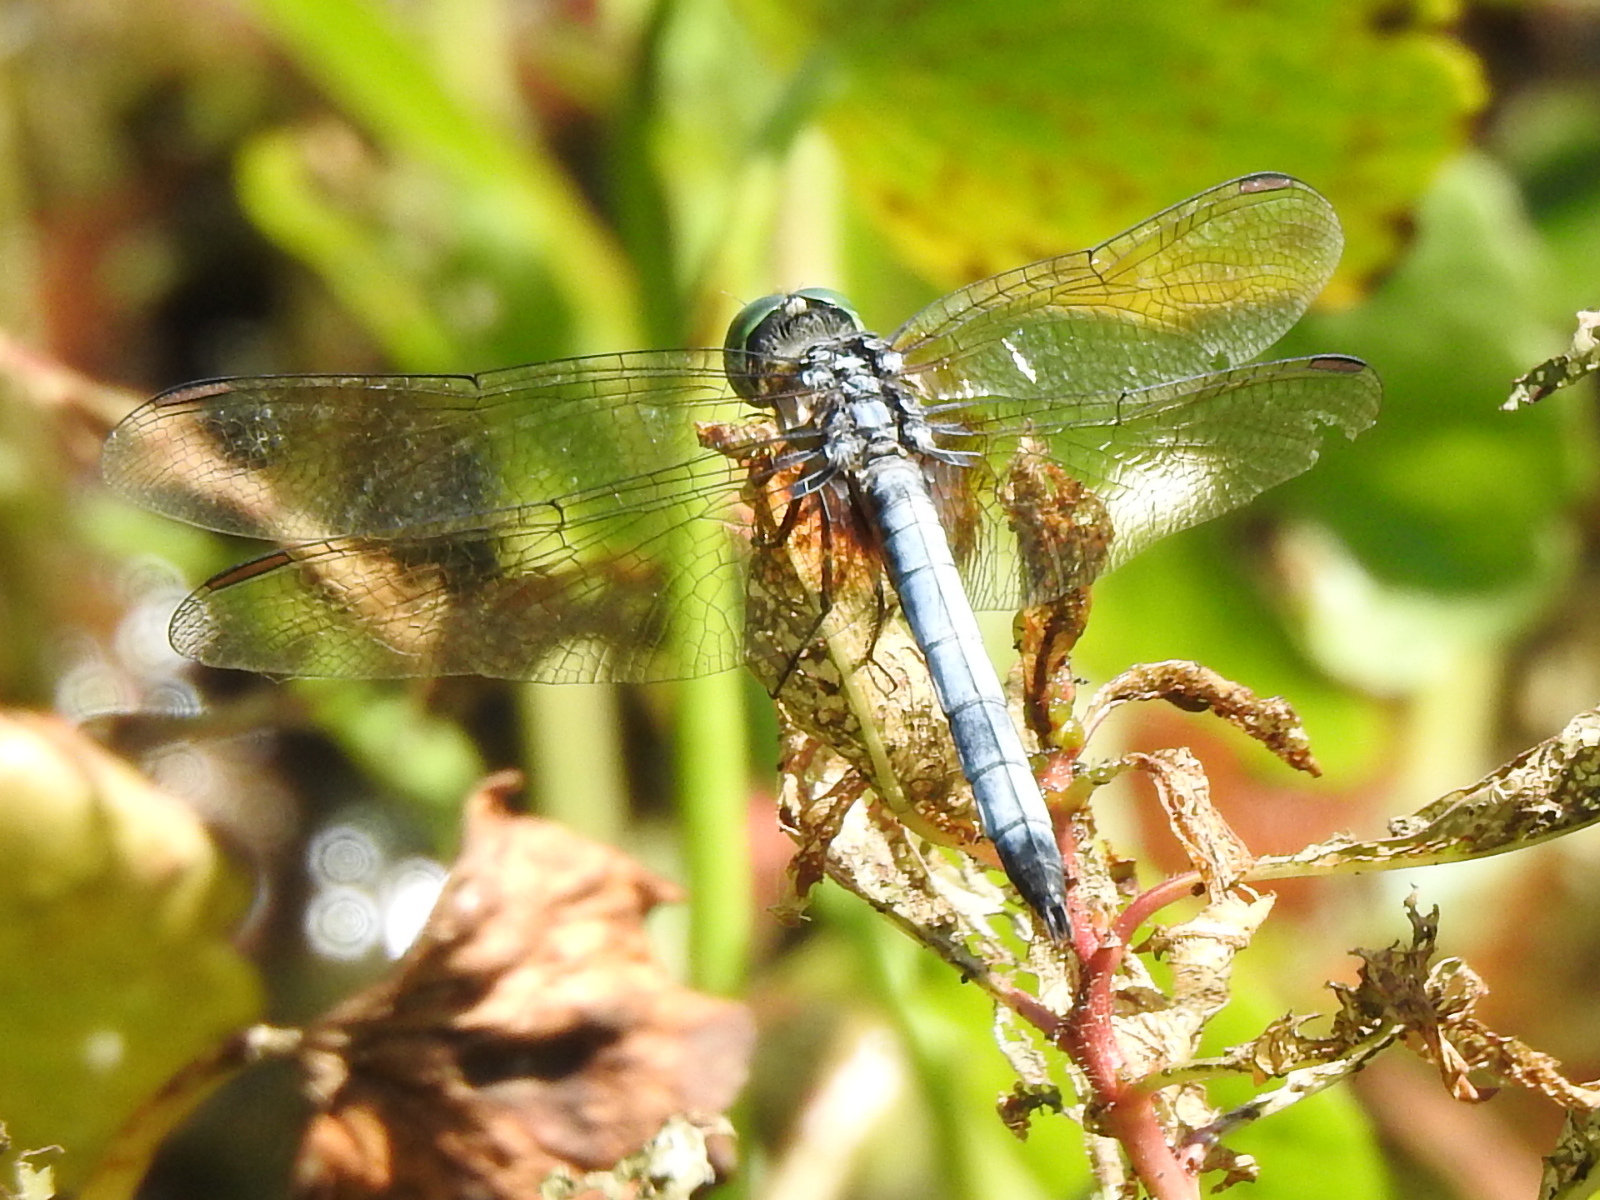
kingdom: Animalia
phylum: Arthropoda
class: Insecta
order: Odonata
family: Libellulidae
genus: Pachydiplax
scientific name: Pachydiplax longipennis
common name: Blue dasher
